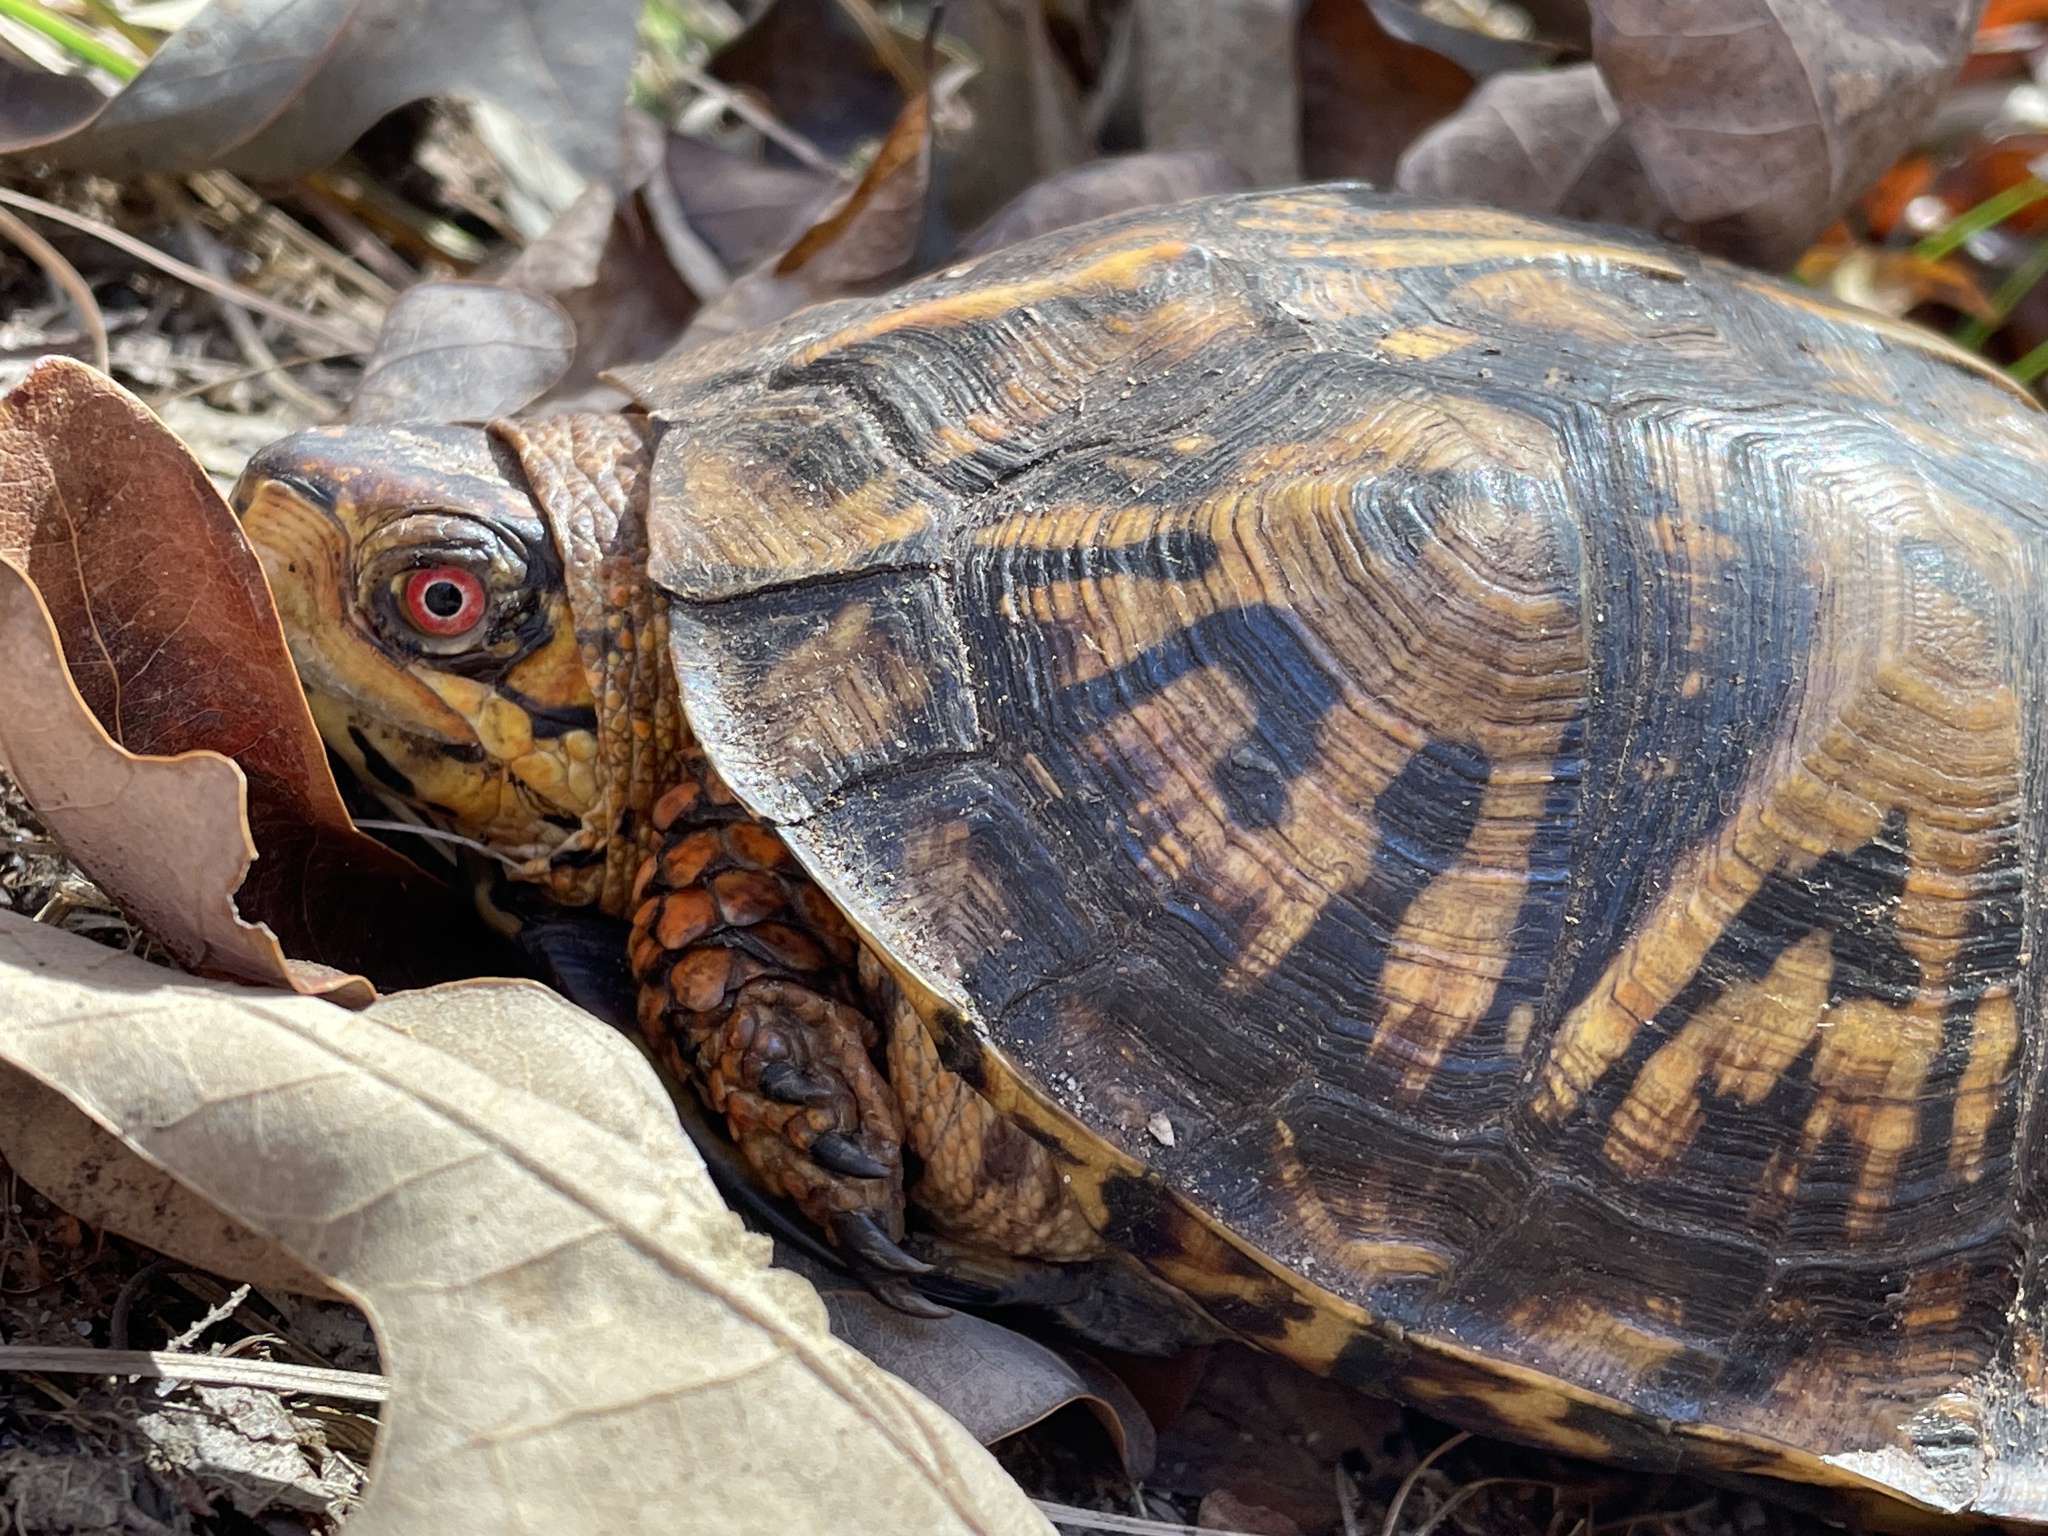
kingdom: Animalia
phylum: Chordata
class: Testudines
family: Emydidae
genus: Terrapene
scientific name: Terrapene carolina
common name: Common box turtle
